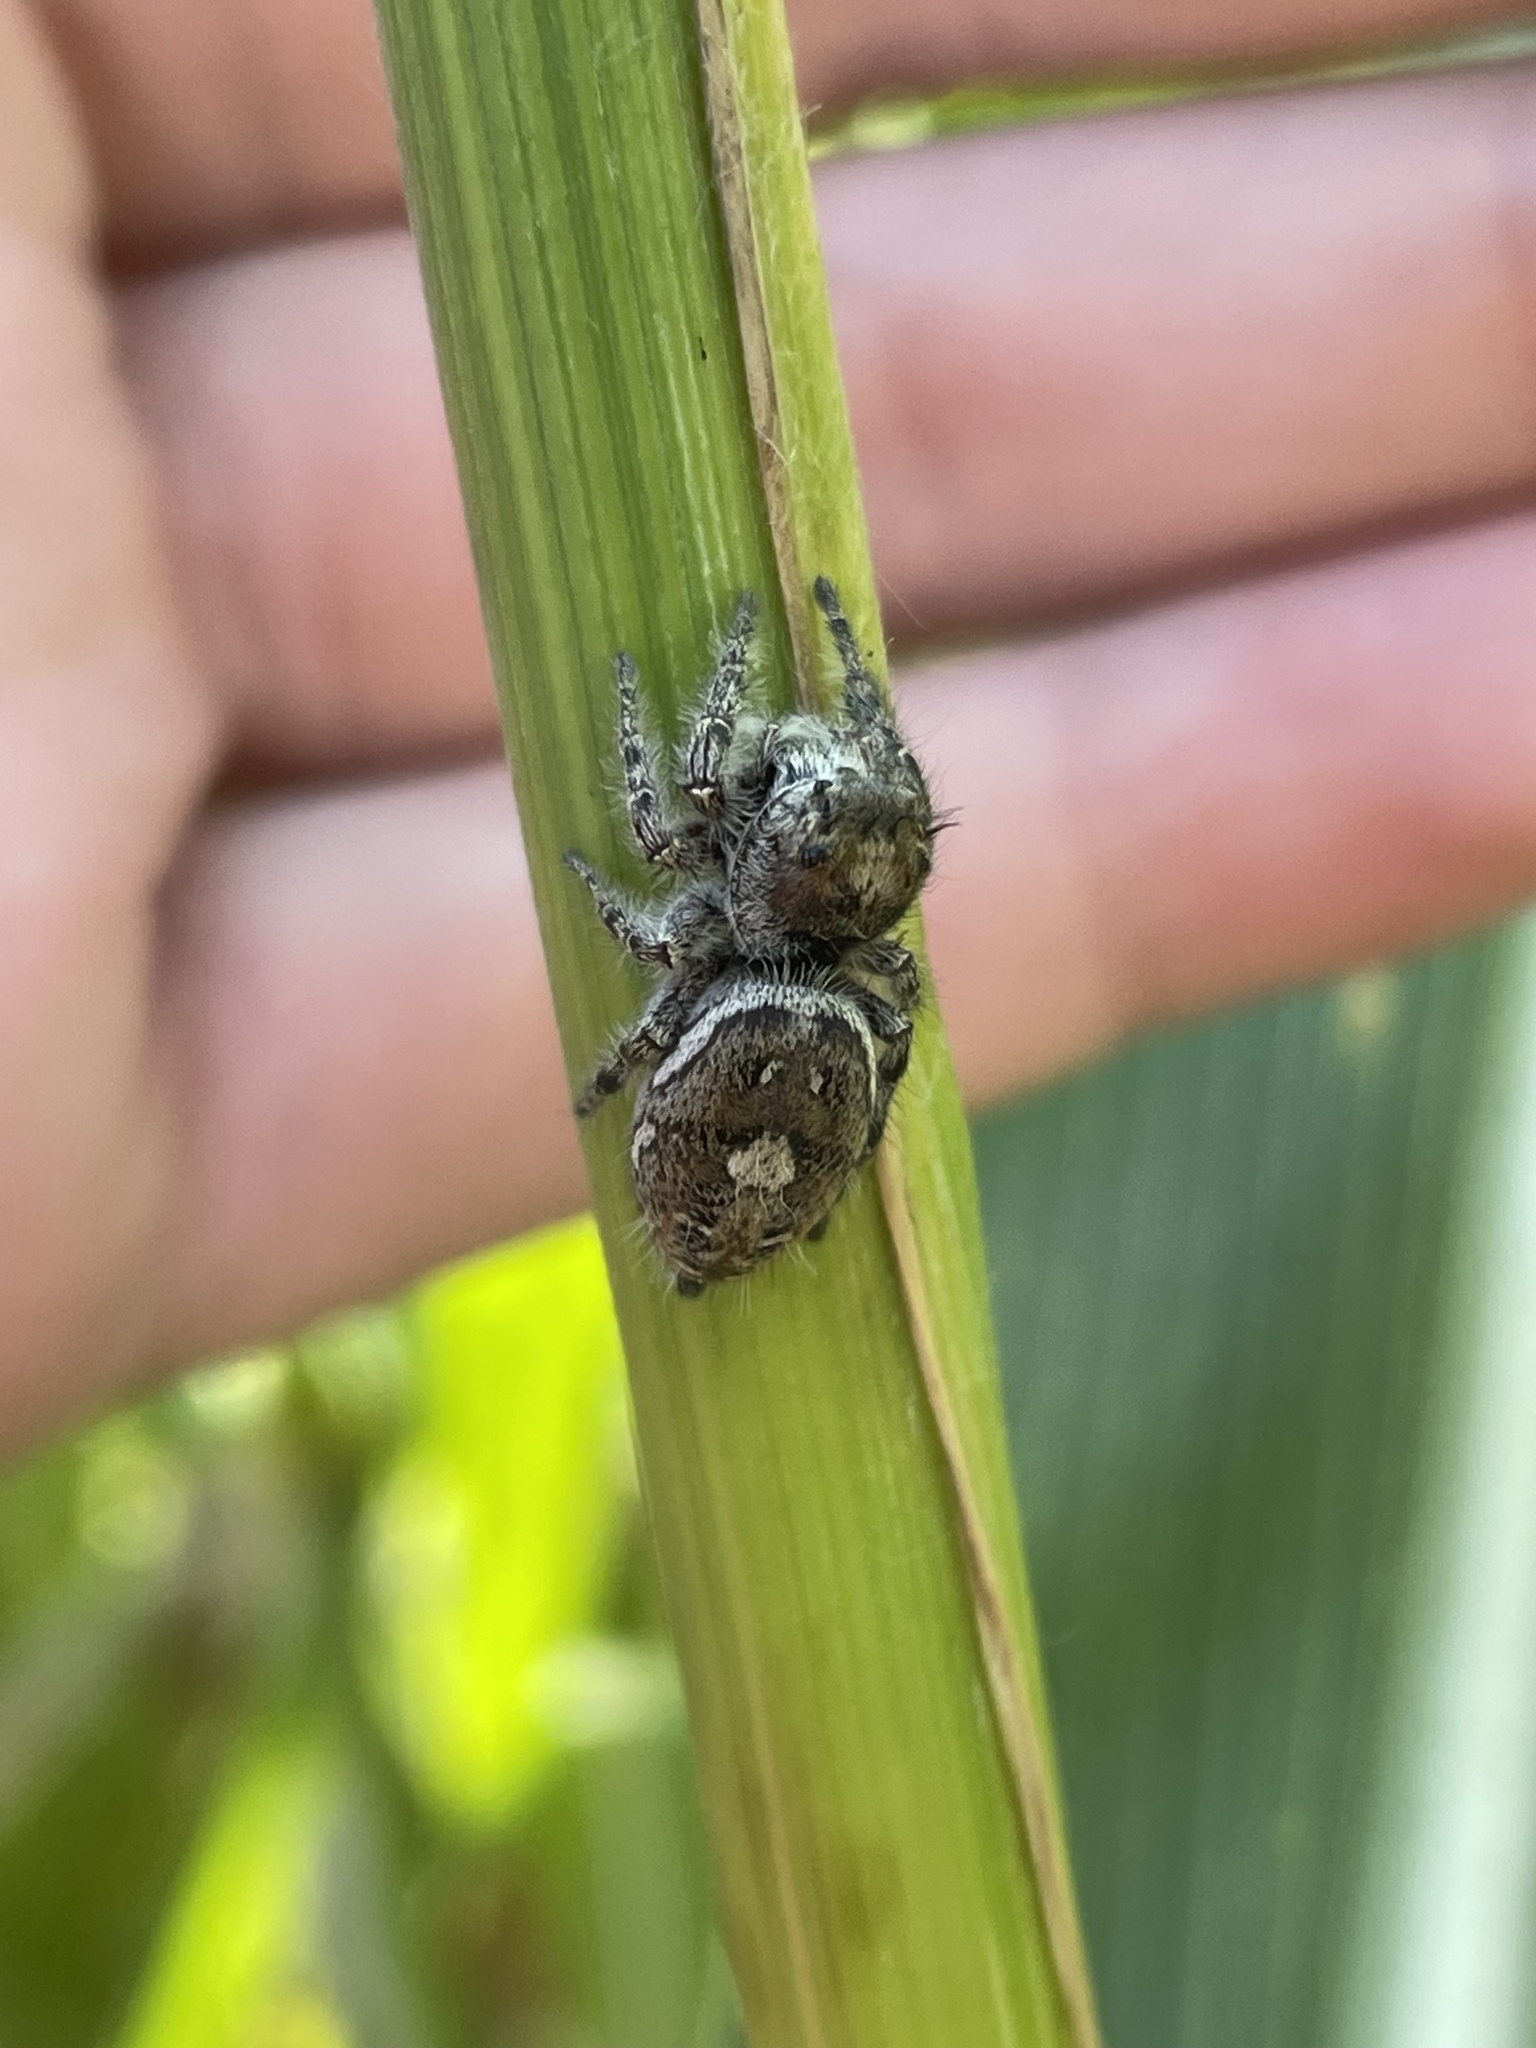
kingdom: Animalia
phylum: Arthropoda
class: Arachnida
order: Araneae
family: Salticidae
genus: Phidippus
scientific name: Phidippus putnami
